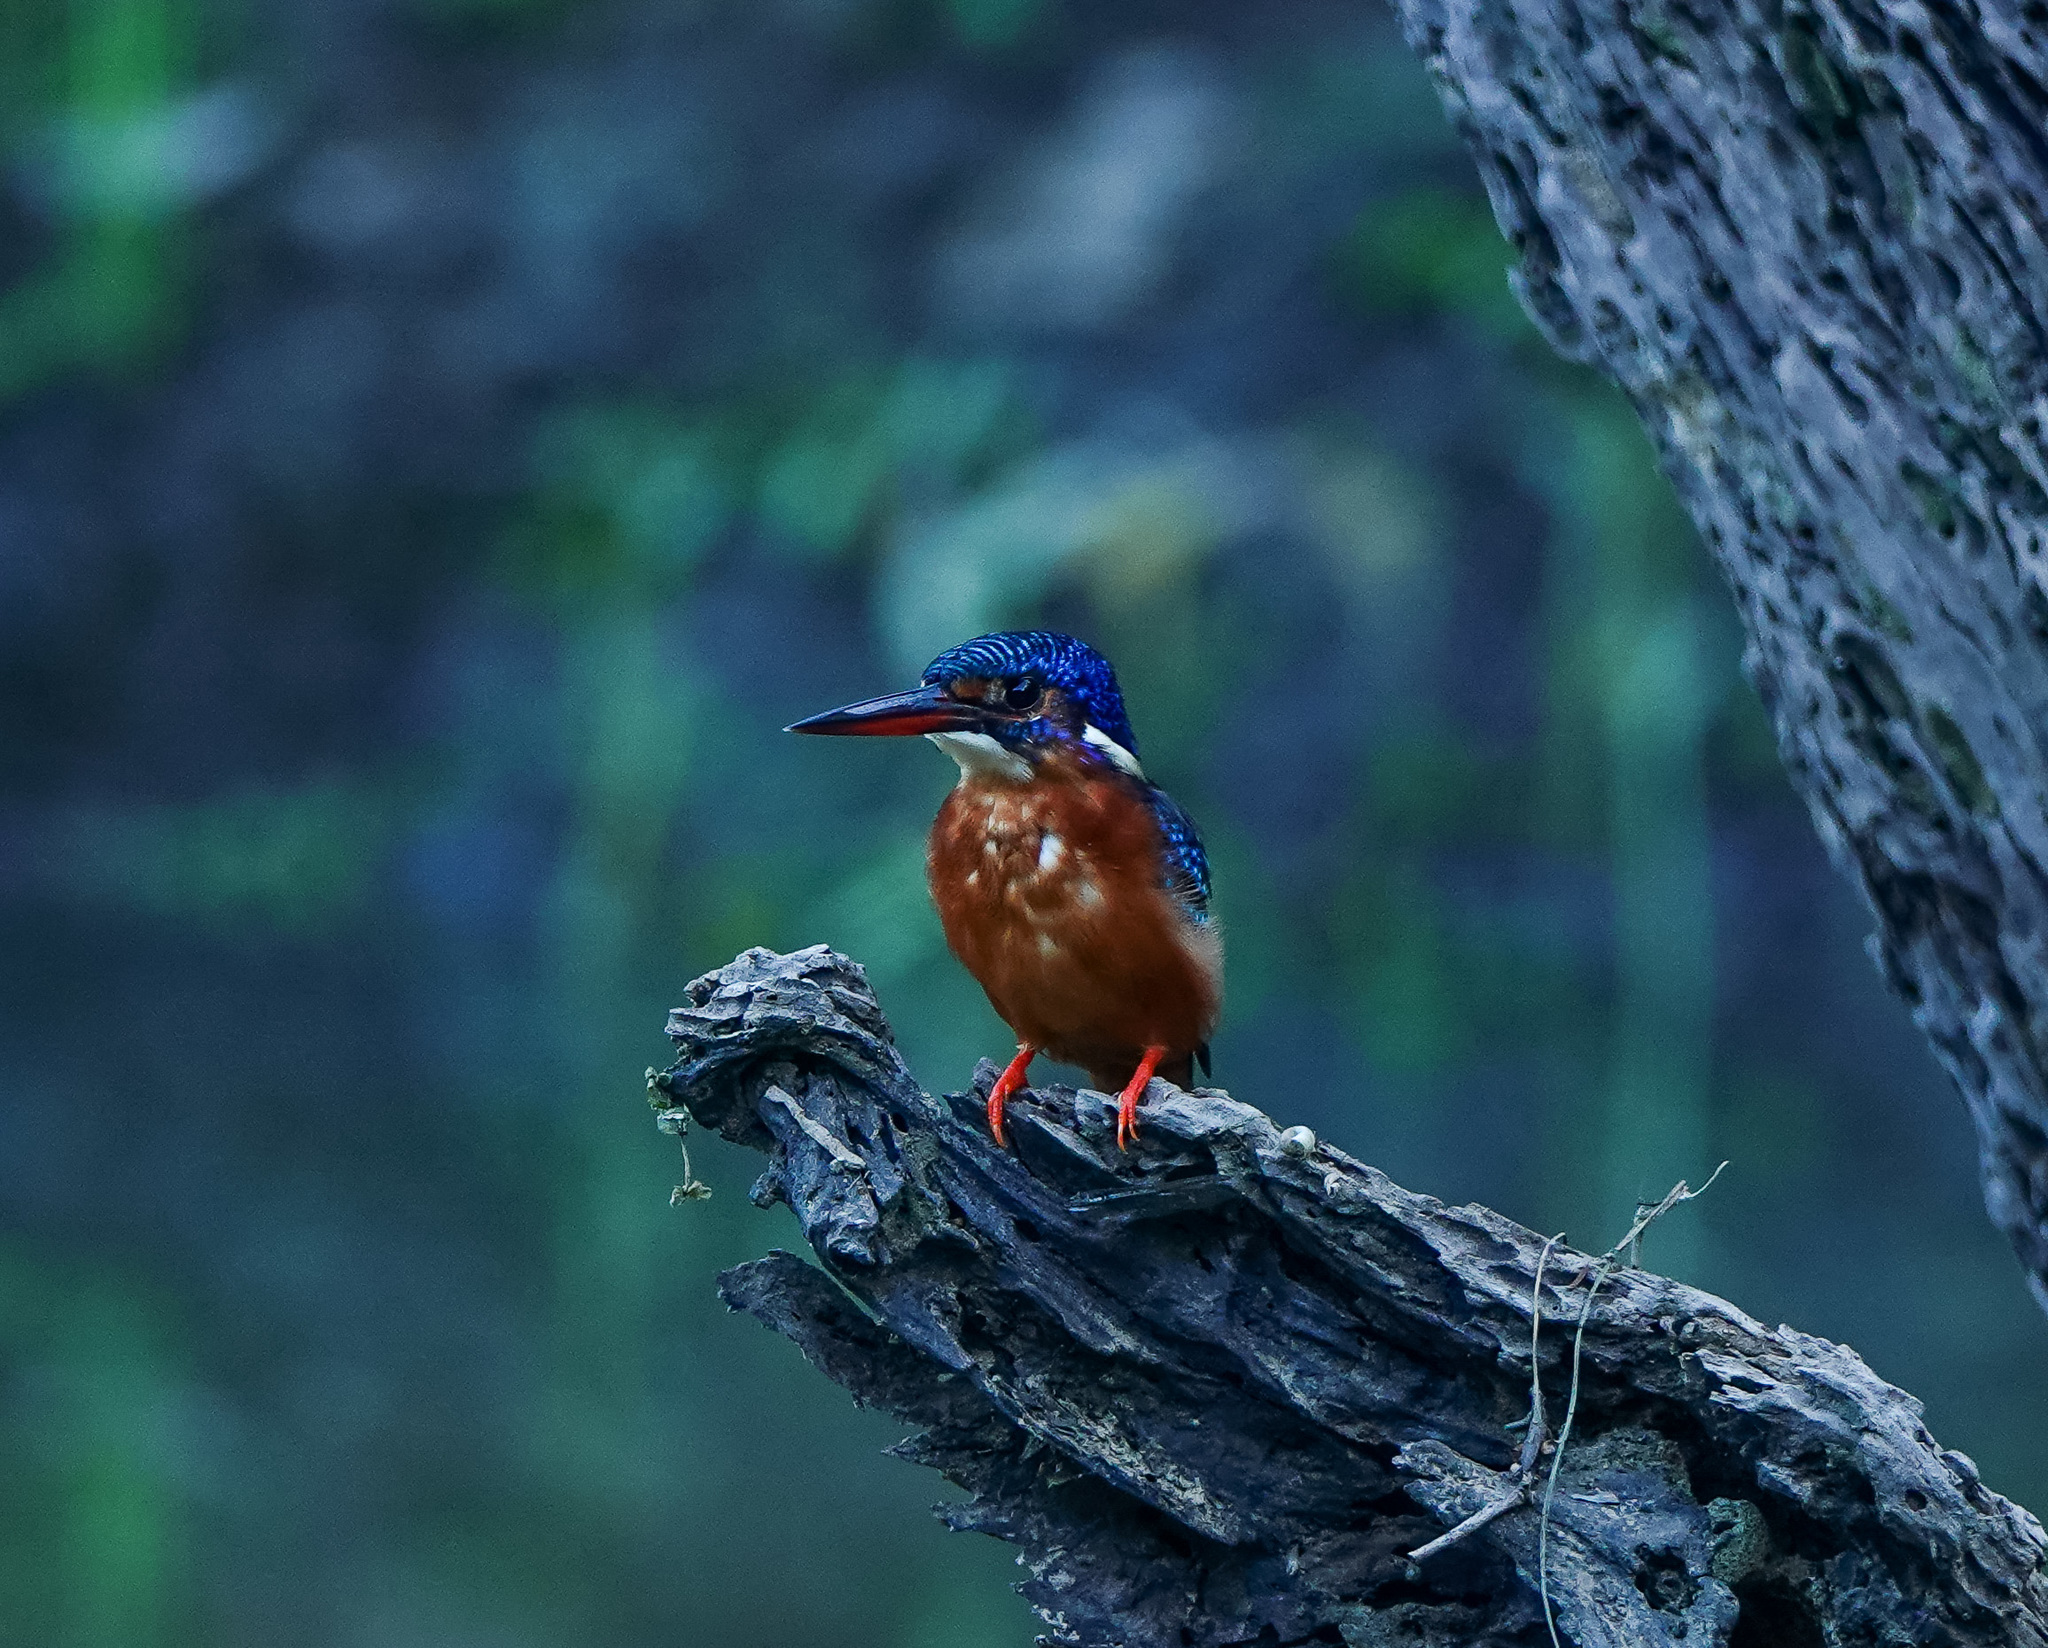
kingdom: Animalia
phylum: Chordata
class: Aves
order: Coraciiformes
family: Alcedinidae
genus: Alcedo
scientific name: Alcedo meninting
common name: Blue-eared kingfisher
